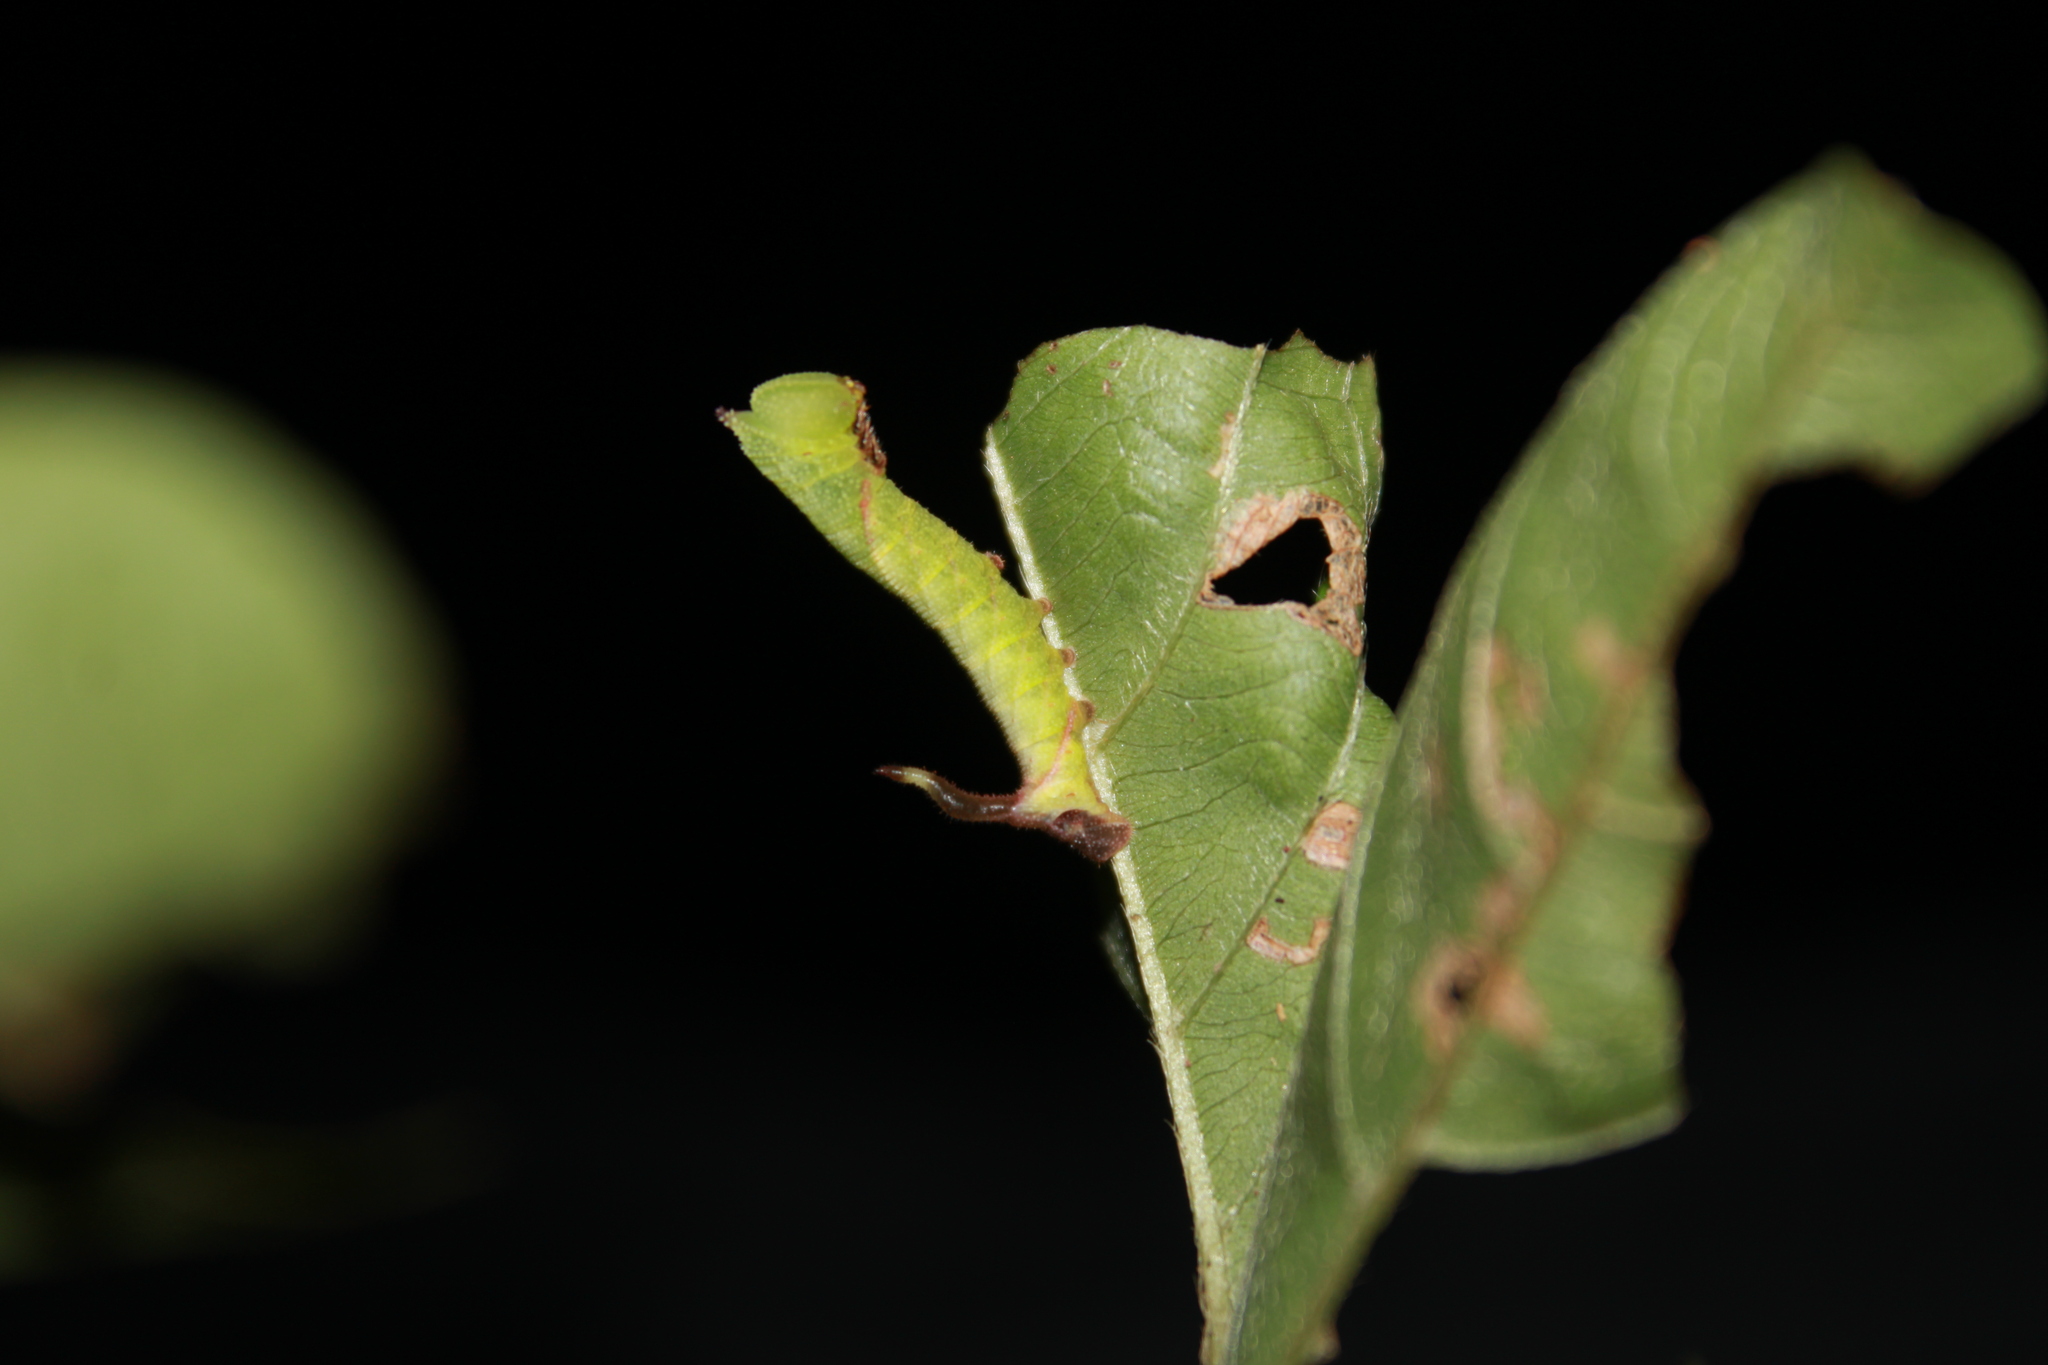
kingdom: Animalia
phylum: Arthropoda
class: Insecta
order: Lepidoptera
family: Sphingidae
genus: Eupyrrhoglossum
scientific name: Eupyrrhoglossum sagra
